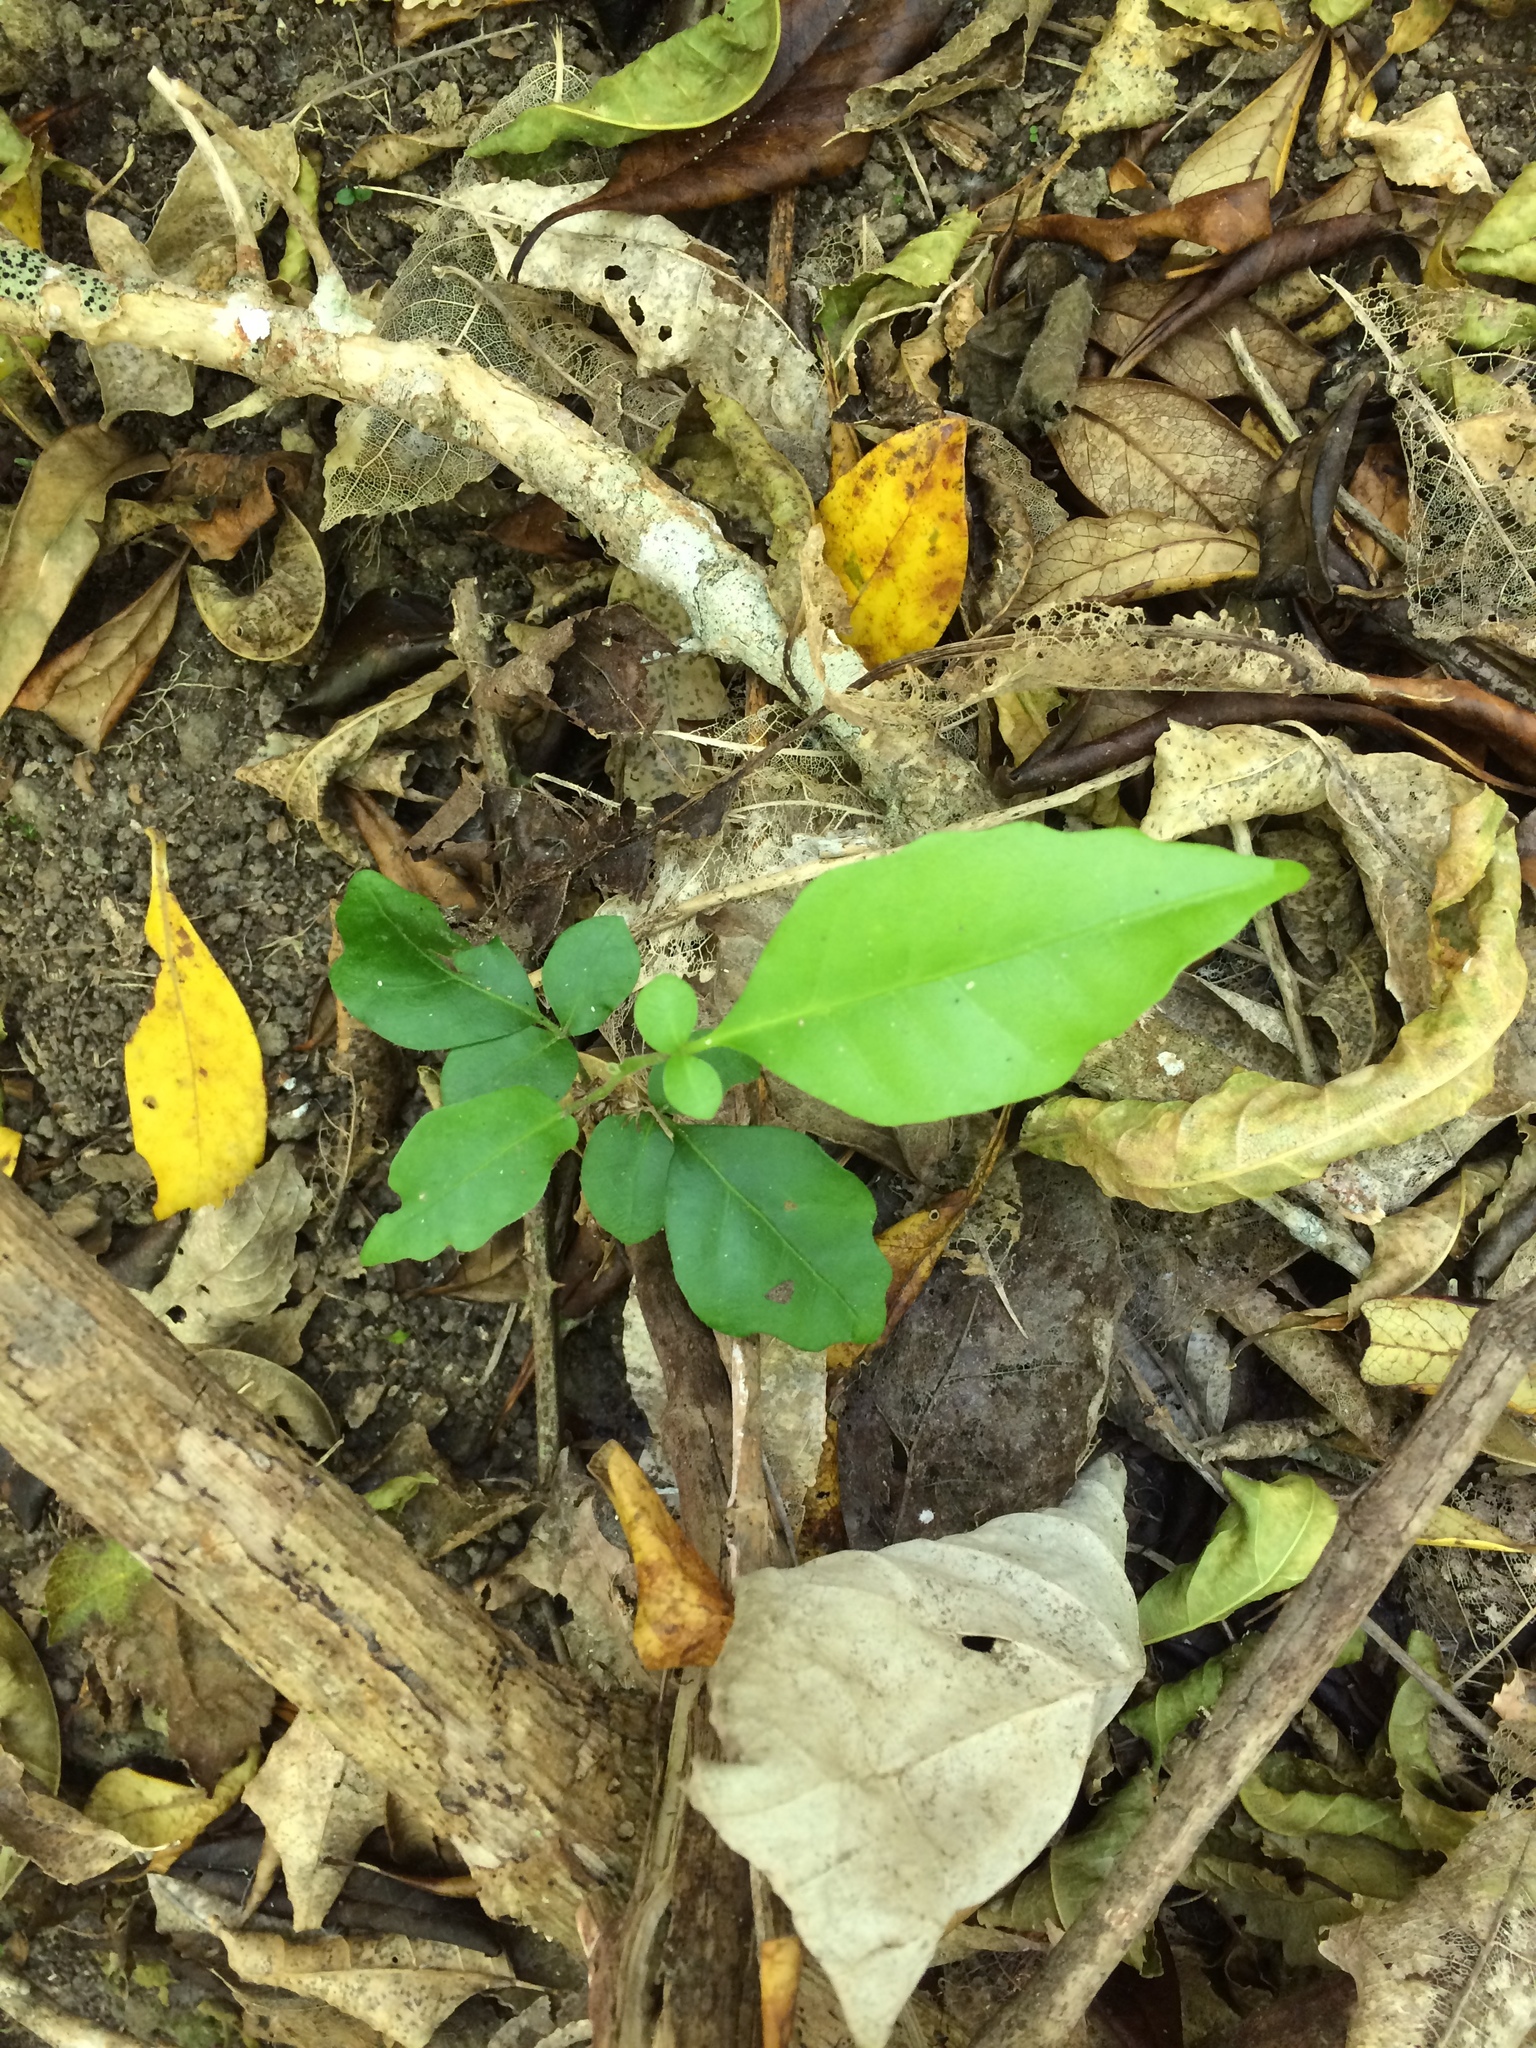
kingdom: Plantae
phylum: Tracheophyta
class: Magnoliopsida
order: Sapindales
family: Meliaceae
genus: Didymocheton
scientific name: Didymocheton spectabilis
